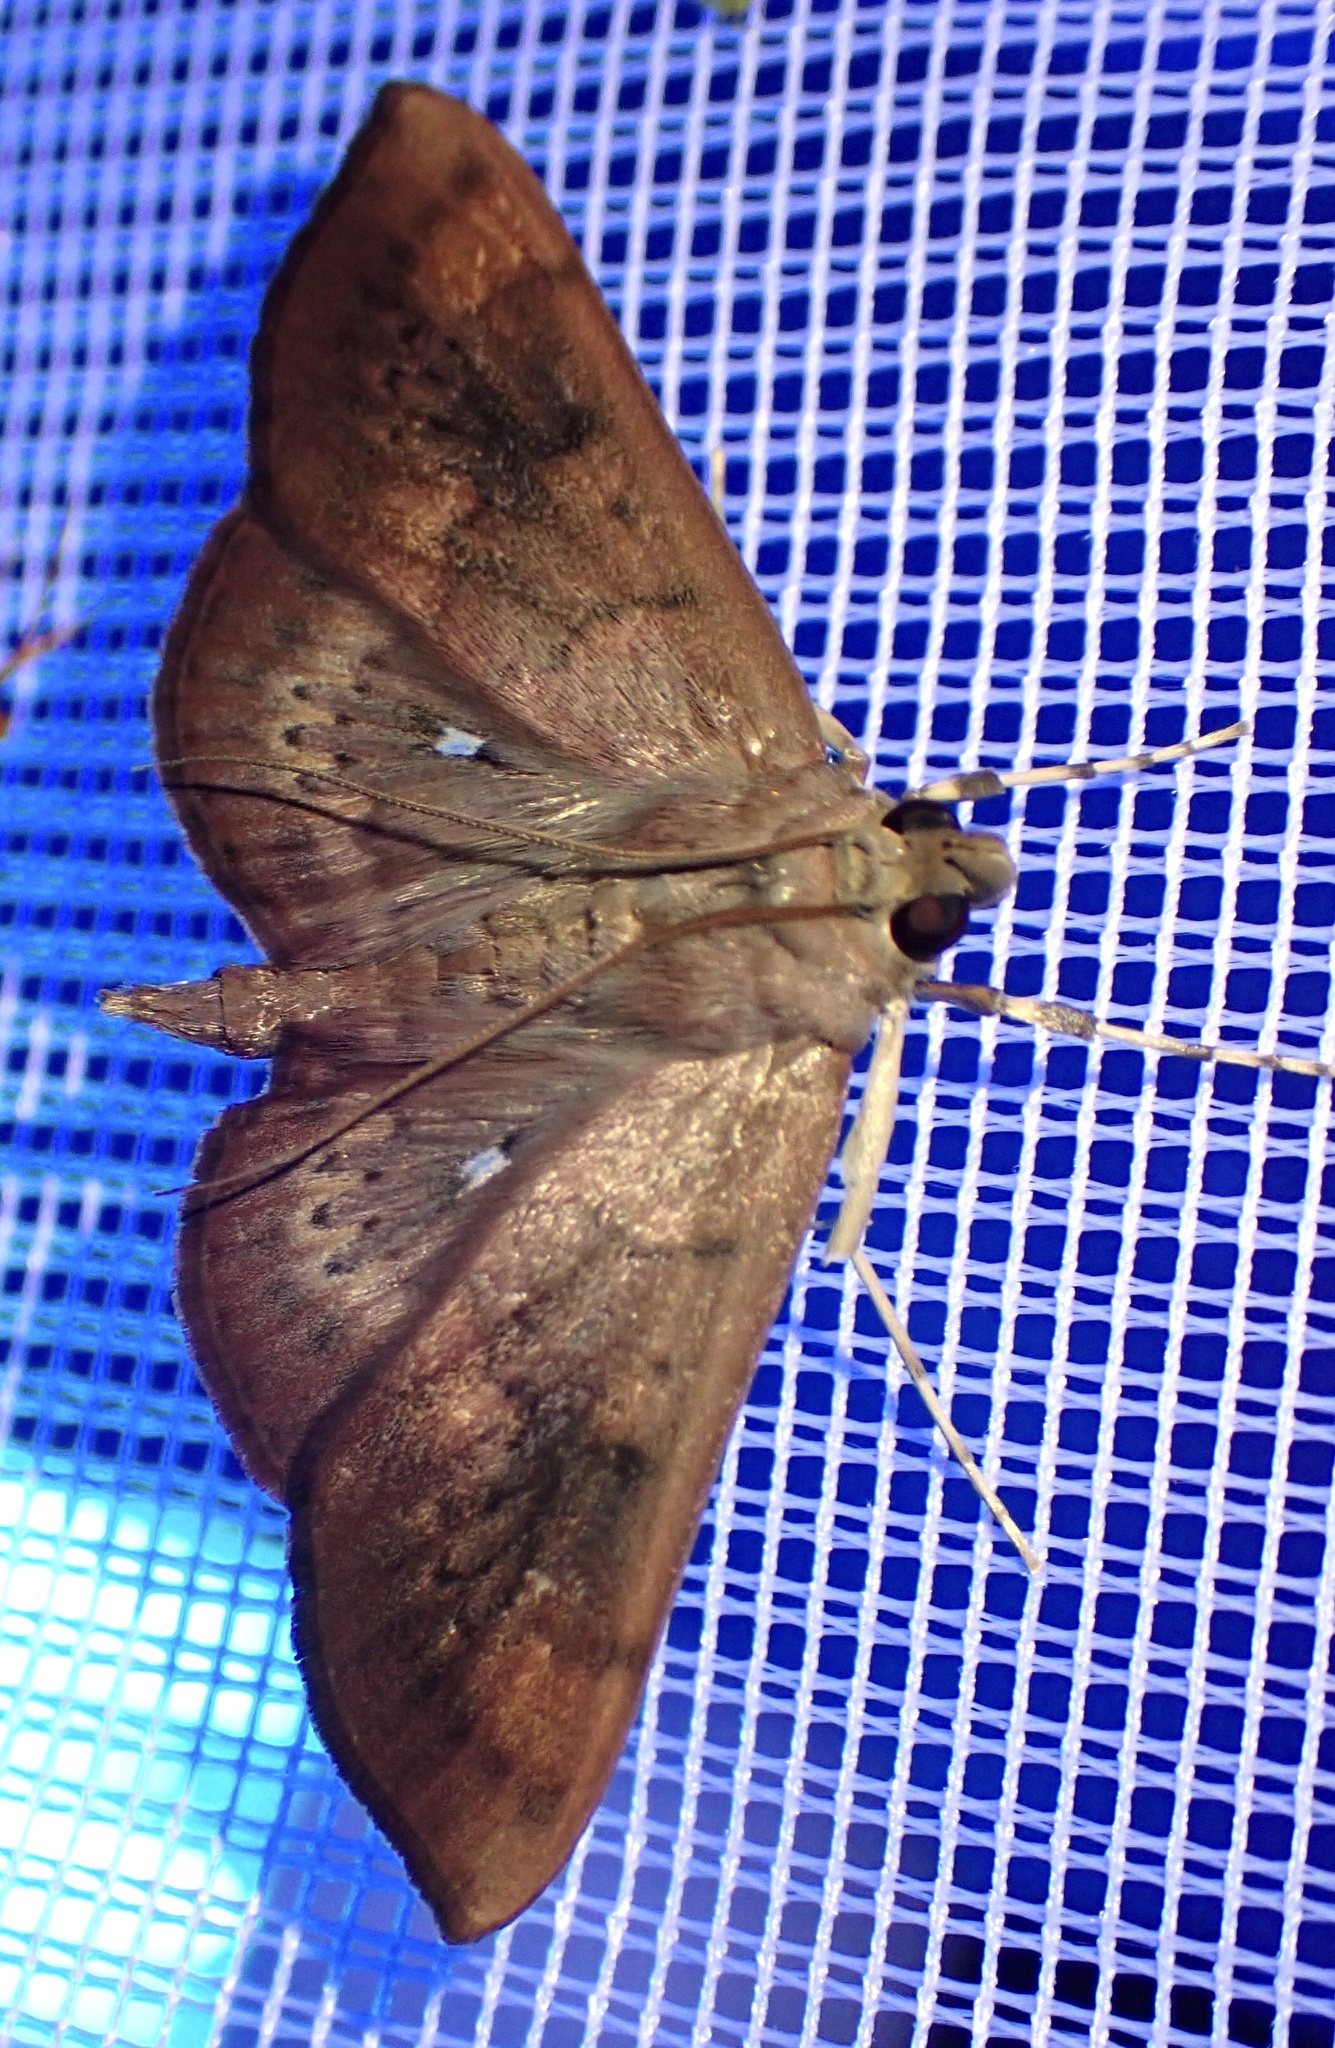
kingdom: Animalia
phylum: Arthropoda
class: Insecta
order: Lepidoptera
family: Crambidae
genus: Omiodes
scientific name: Omiodes basalticalis
